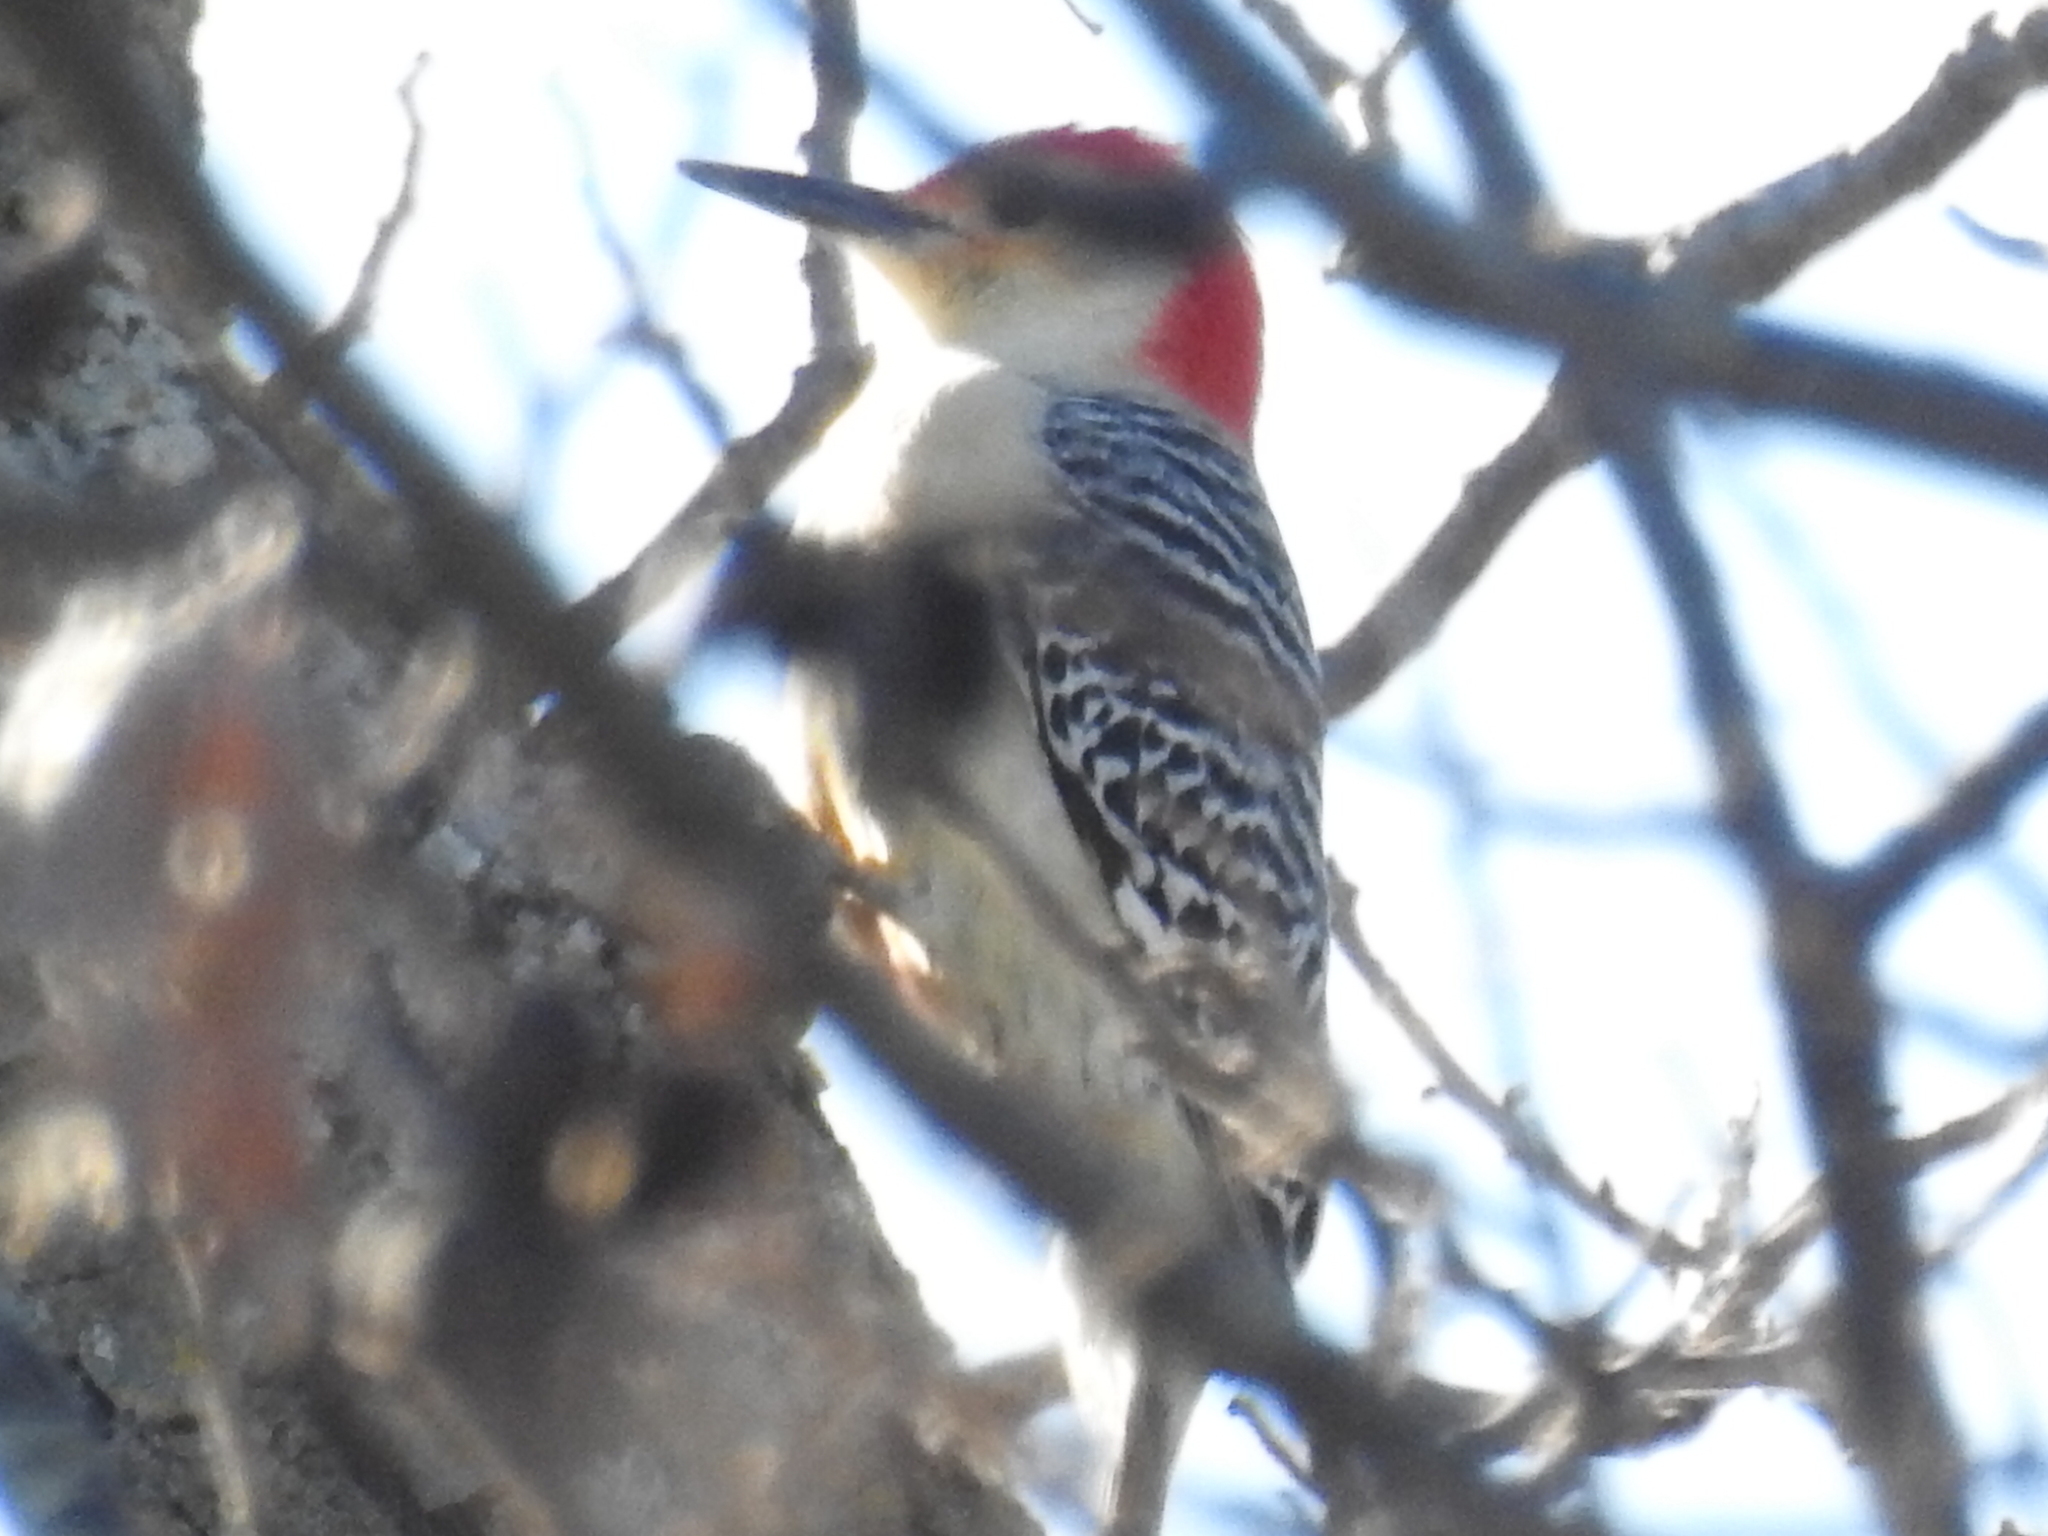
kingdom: Animalia
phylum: Chordata
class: Aves
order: Piciformes
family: Picidae
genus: Melanerpes
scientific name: Melanerpes carolinus
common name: Red-bellied woodpecker
